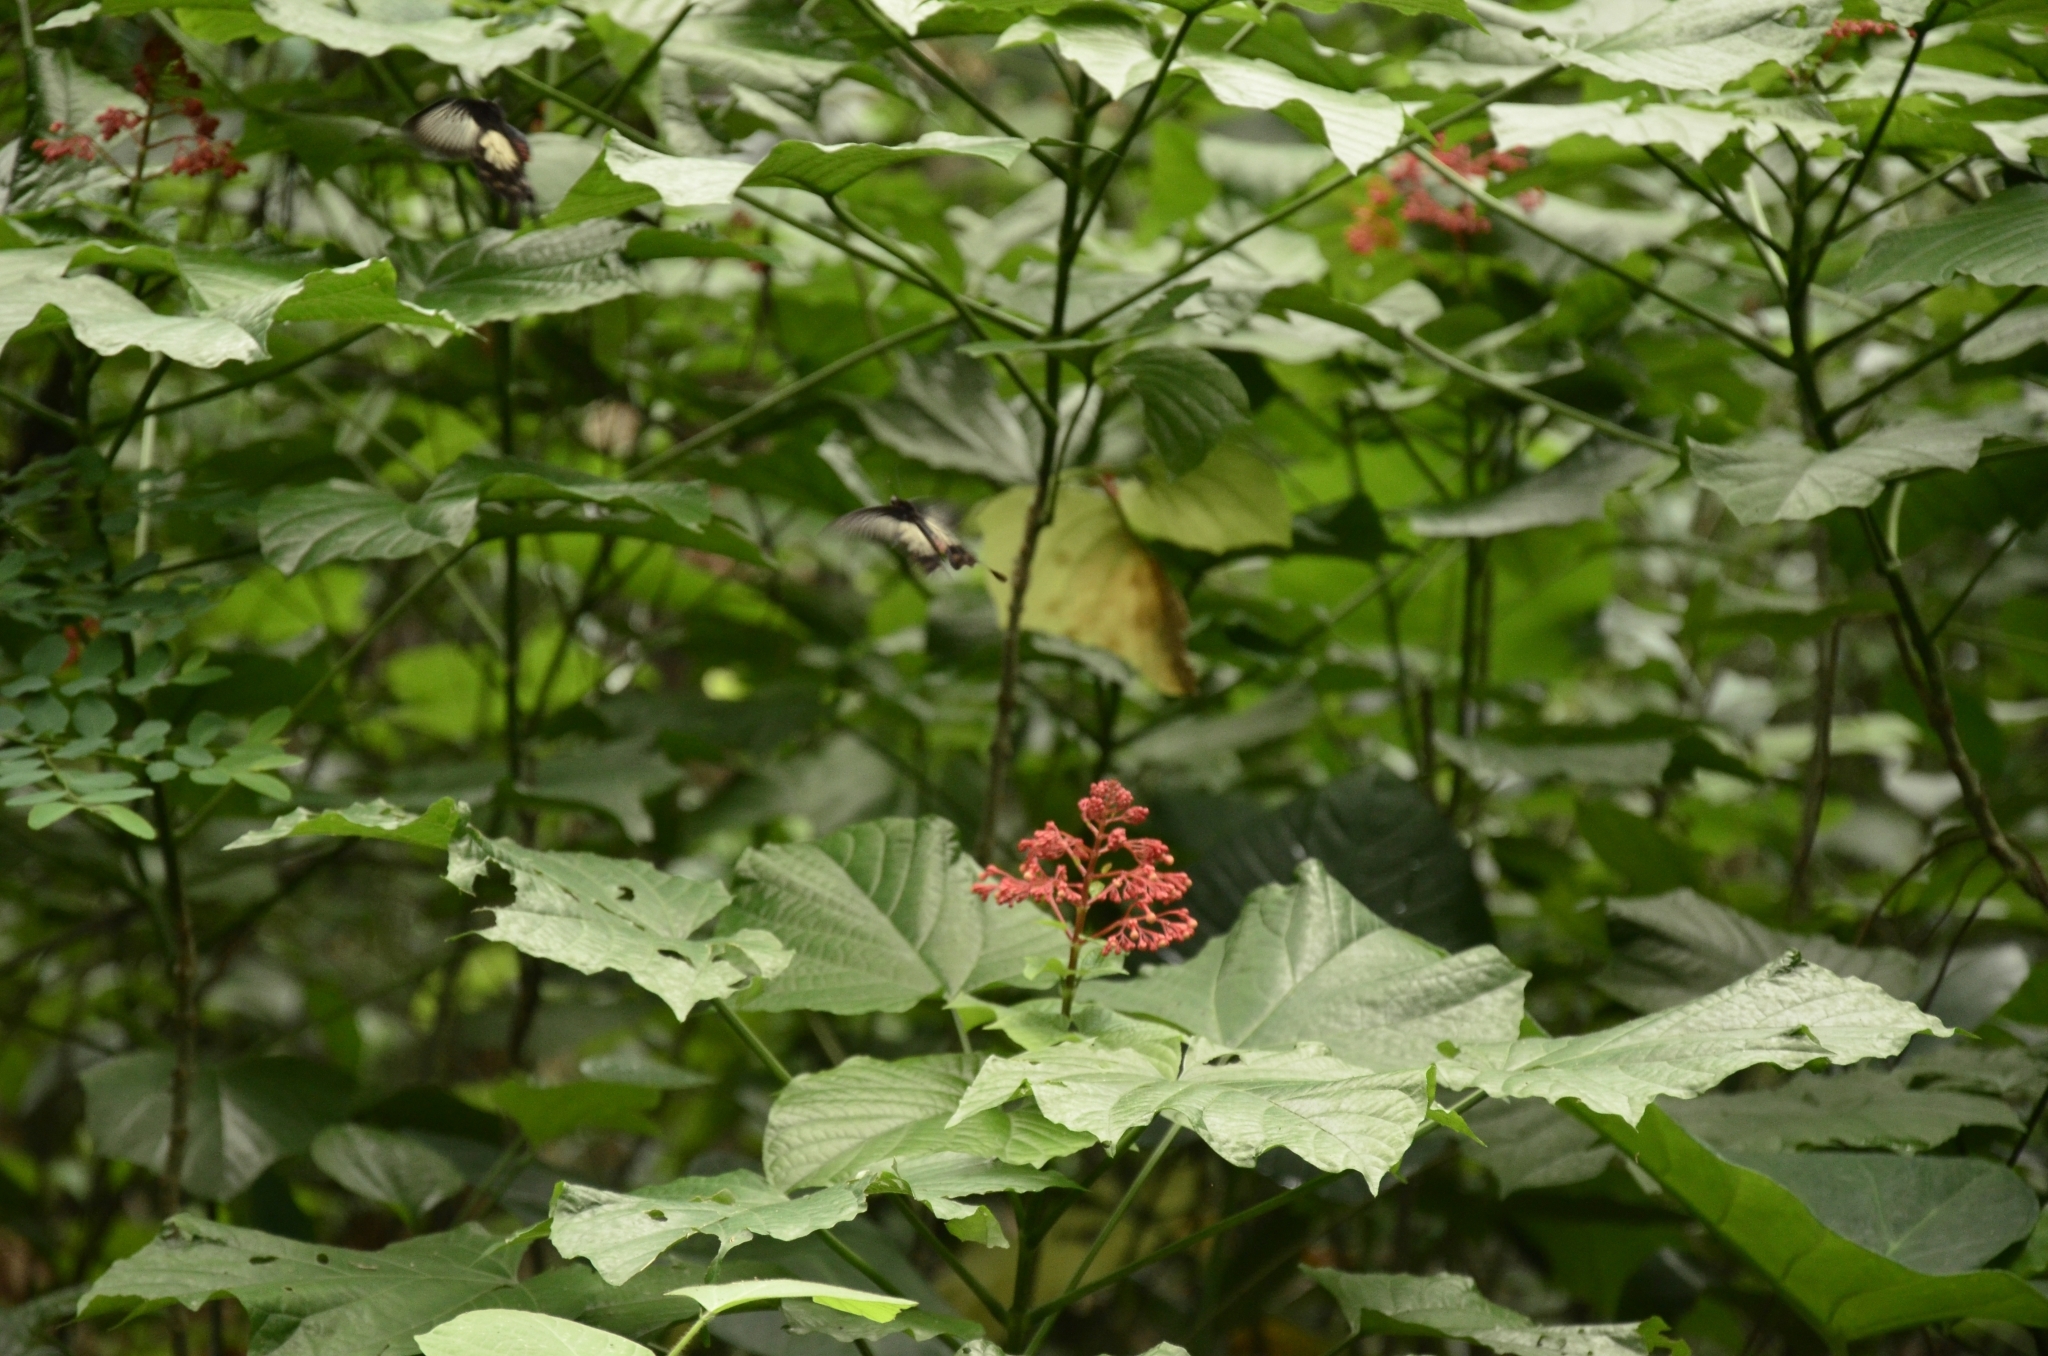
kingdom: Plantae
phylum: Tracheophyta
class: Magnoliopsida
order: Lamiales
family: Lamiaceae
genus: Clerodendrum
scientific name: Clerodendrum paniculatum
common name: Pagoda-flower
